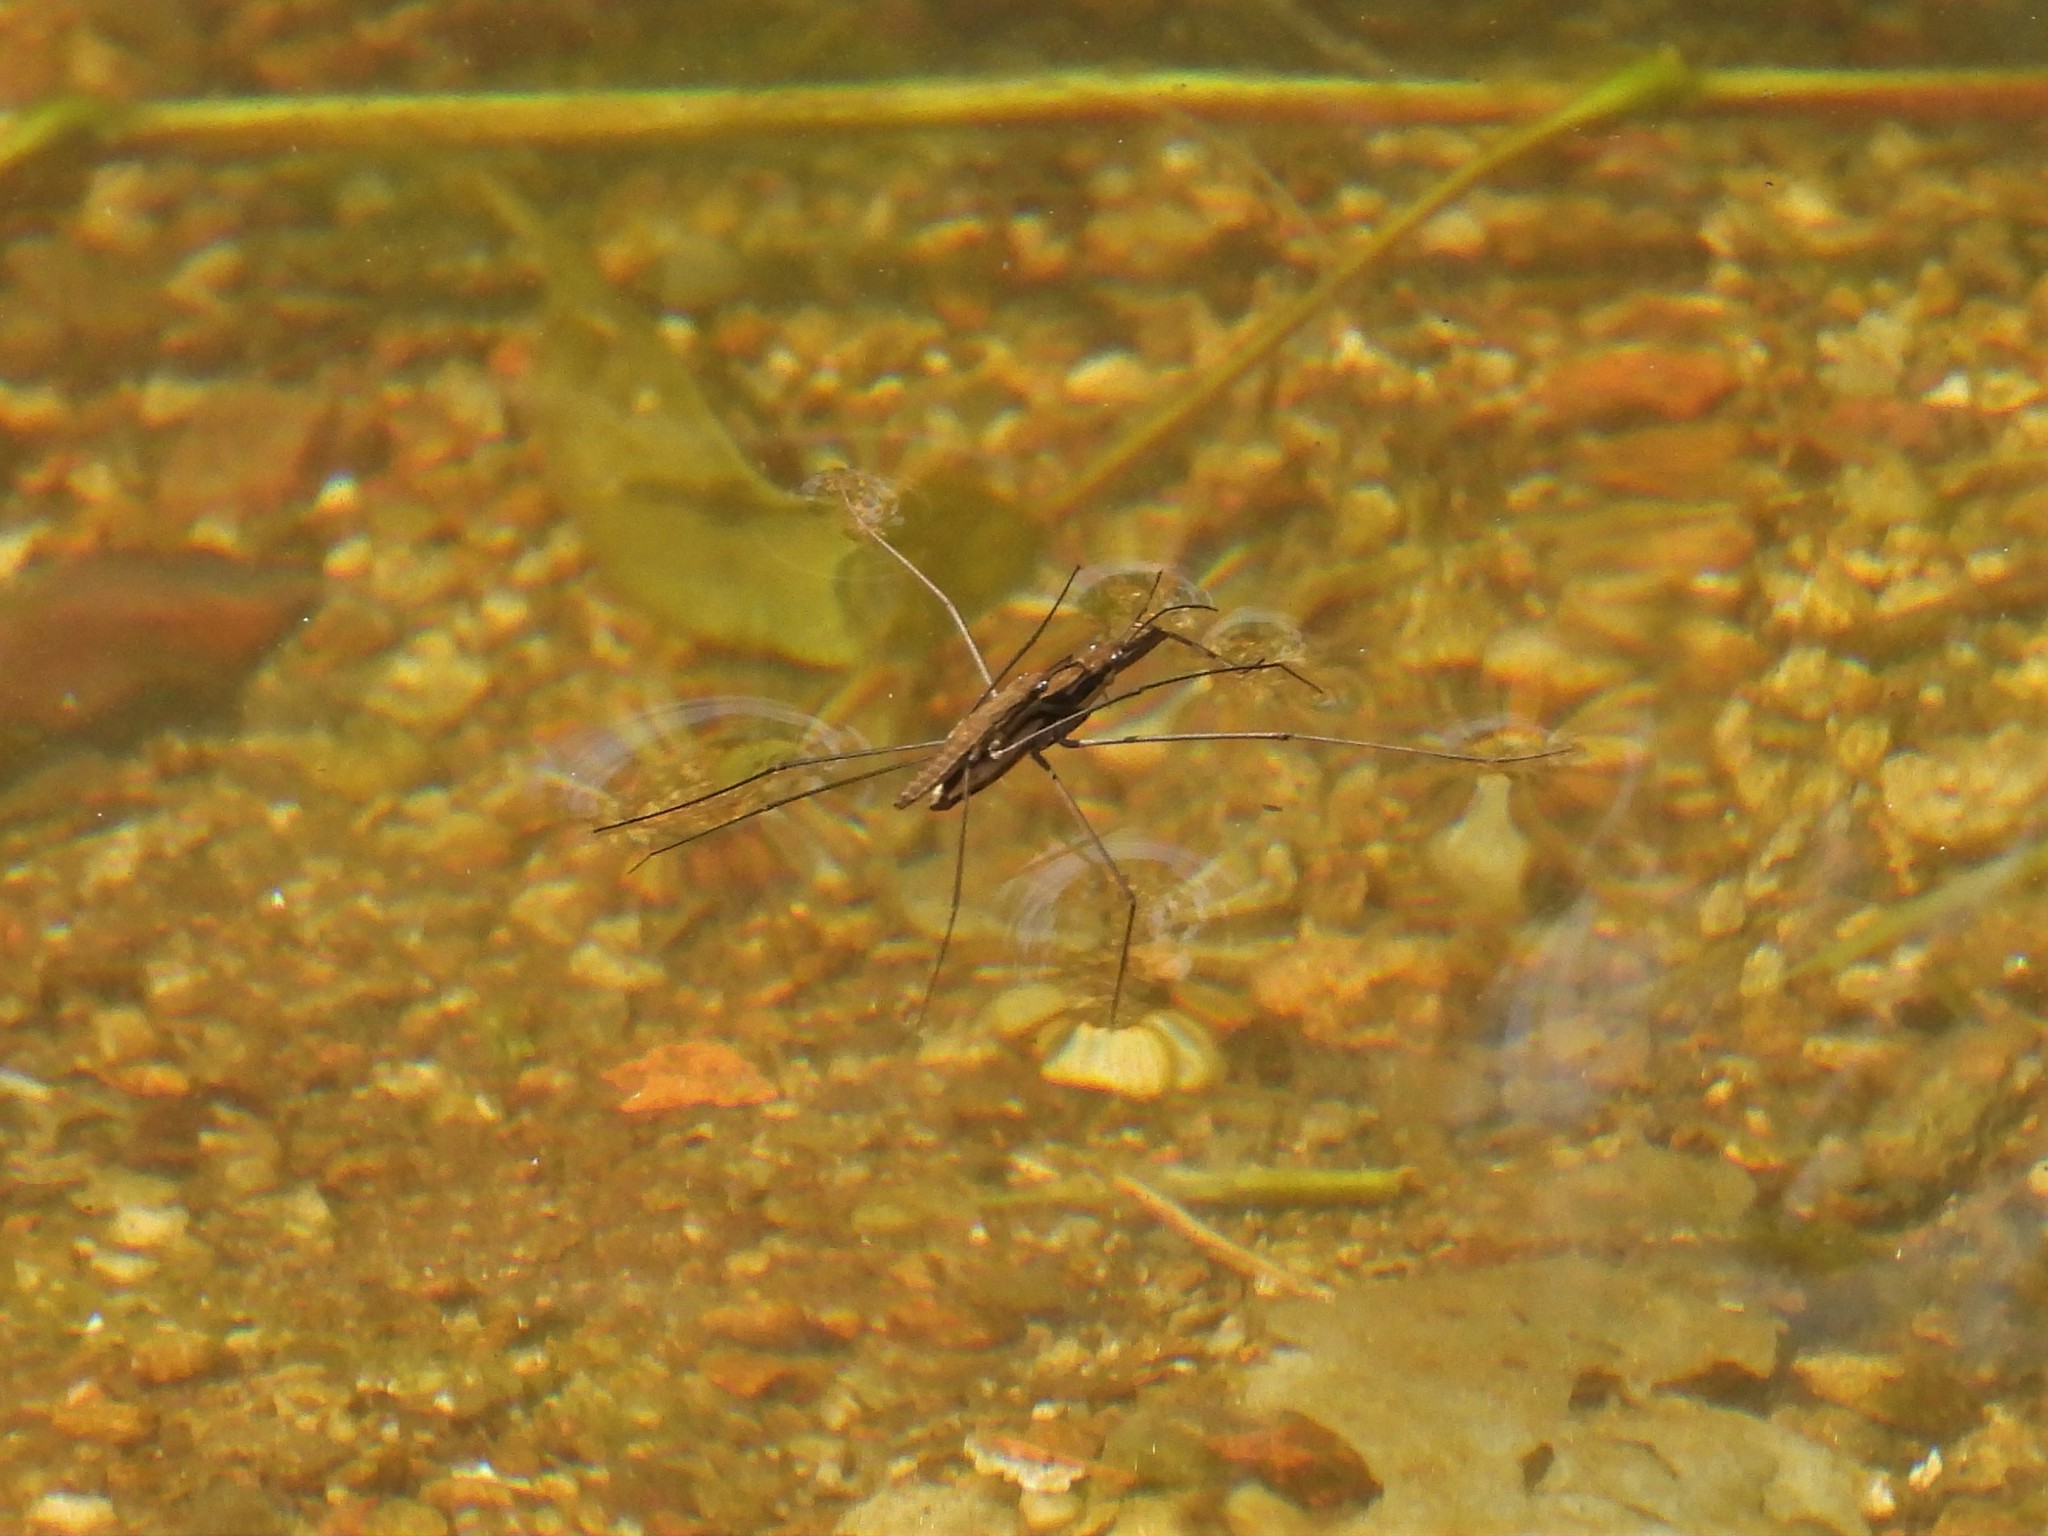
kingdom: Animalia
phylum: Arthropoda
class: Insecta
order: Hemiptera
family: Gerridae
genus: Aquarius
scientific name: Aquarius najas
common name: River skater
